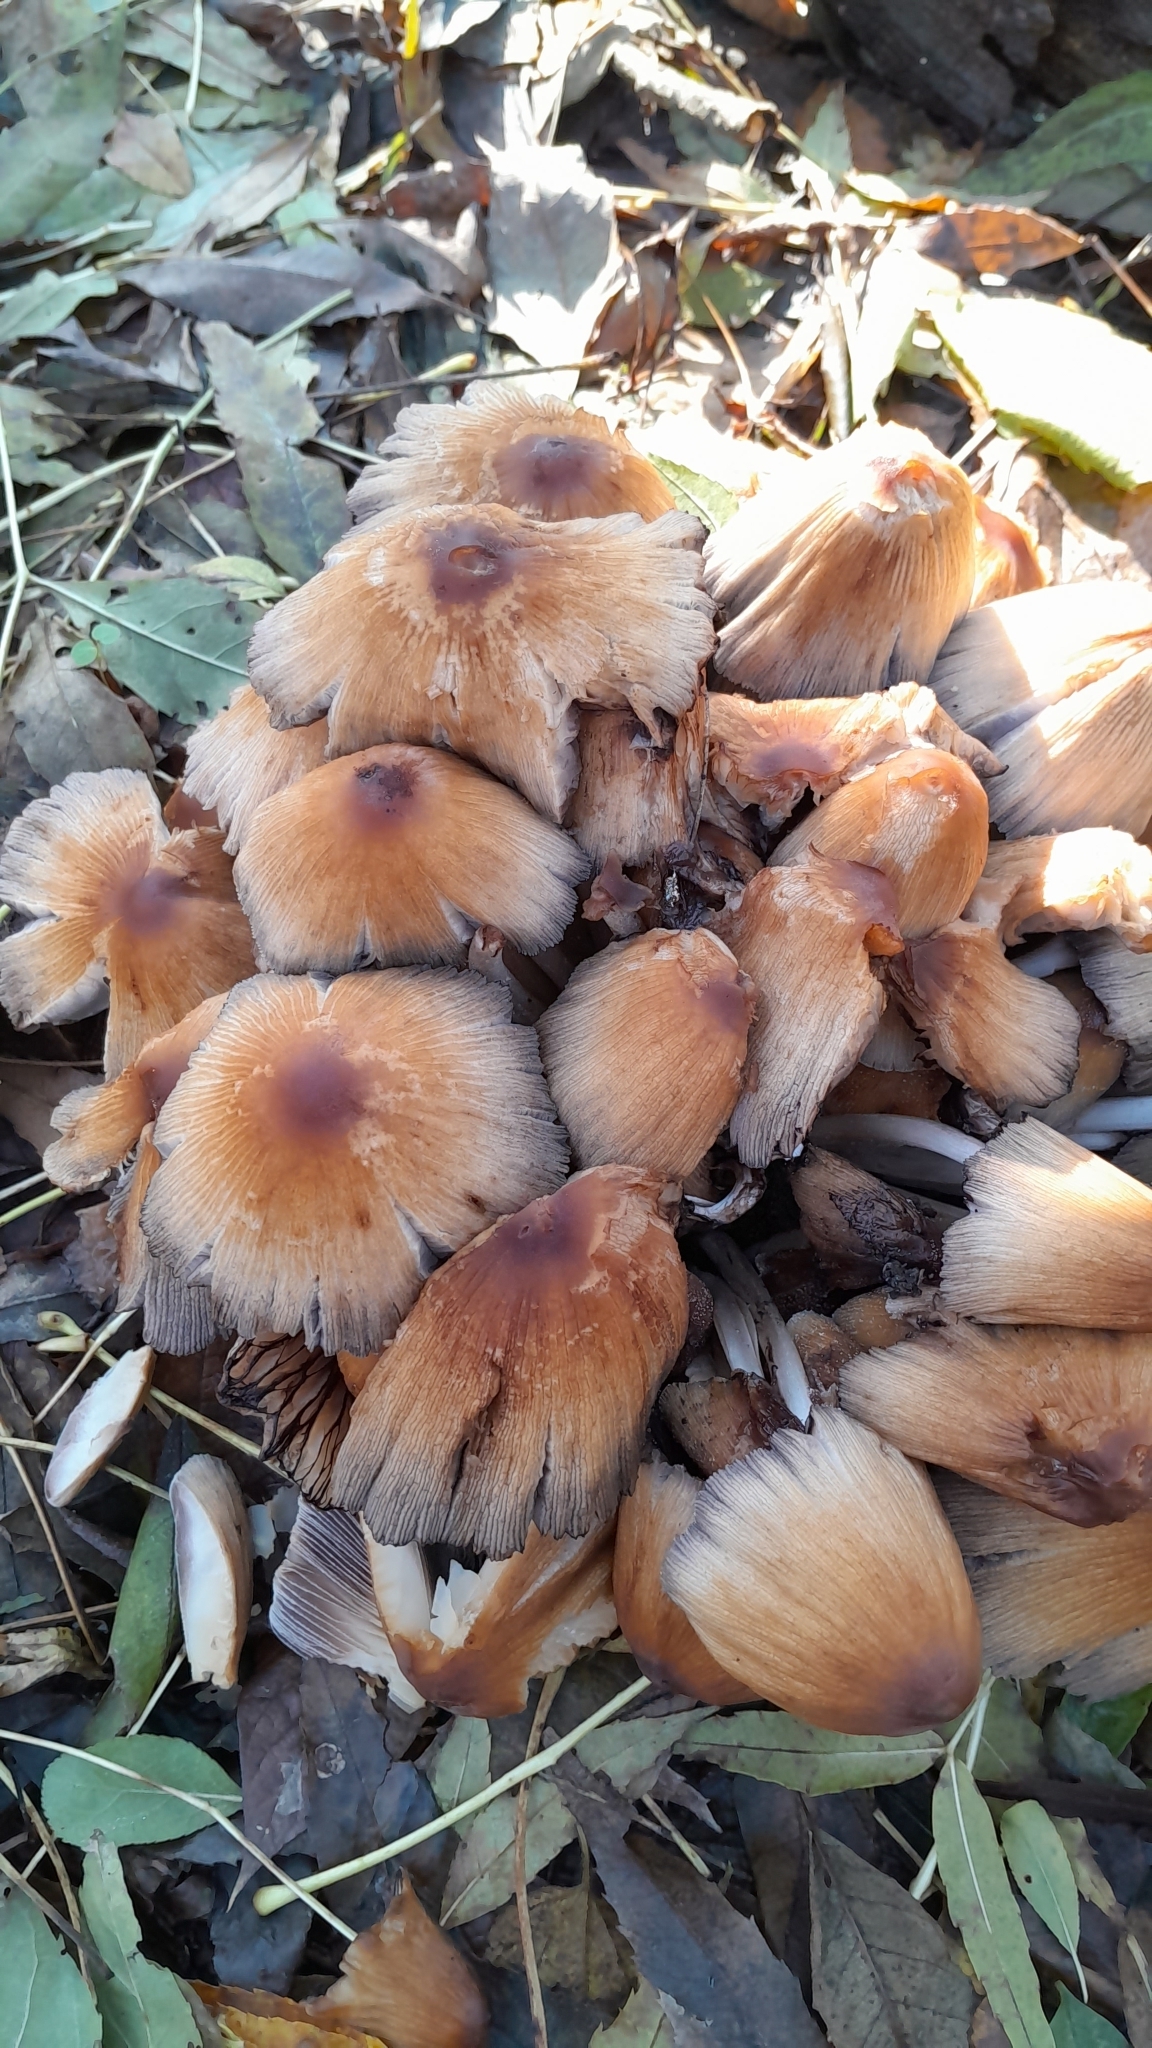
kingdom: Fungi
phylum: Basidiomycota
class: Agaricomycetes
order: Agaricales
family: Psathyrellaceae
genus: Coprinellus
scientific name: Coprinellus micaceus
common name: Glistening ink-cap
